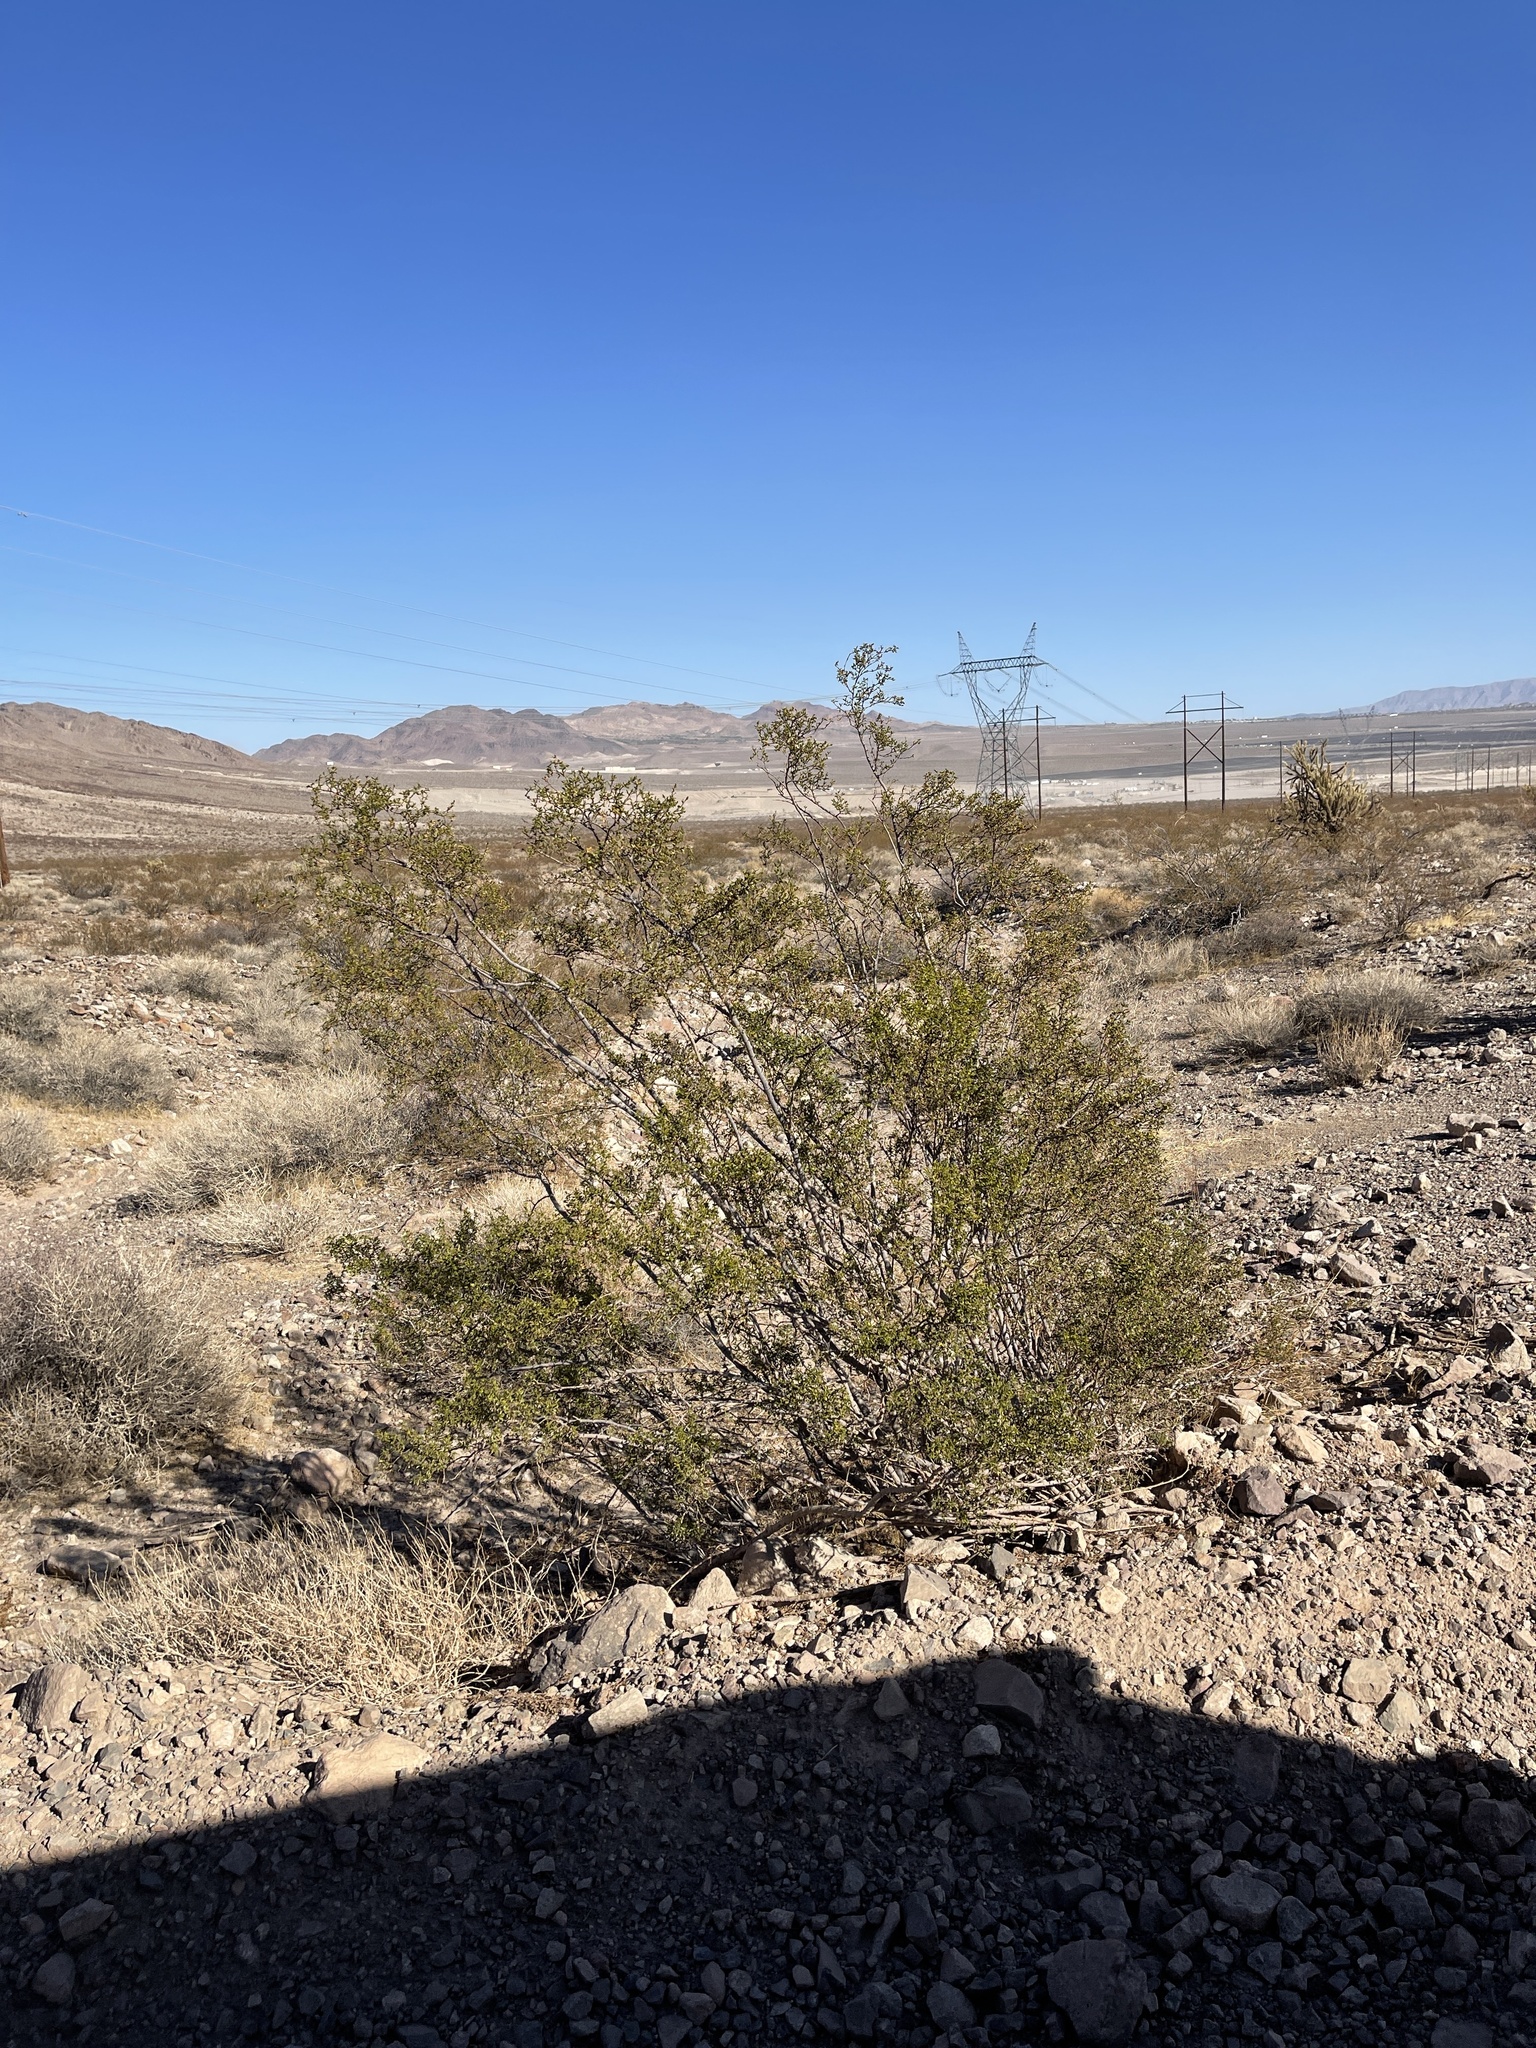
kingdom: Plantae
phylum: Tracheophyta
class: Magnoliopsida
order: Zygophyllales
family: Zygophyllaceae
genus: Larrea
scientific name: Larrea tridentata
